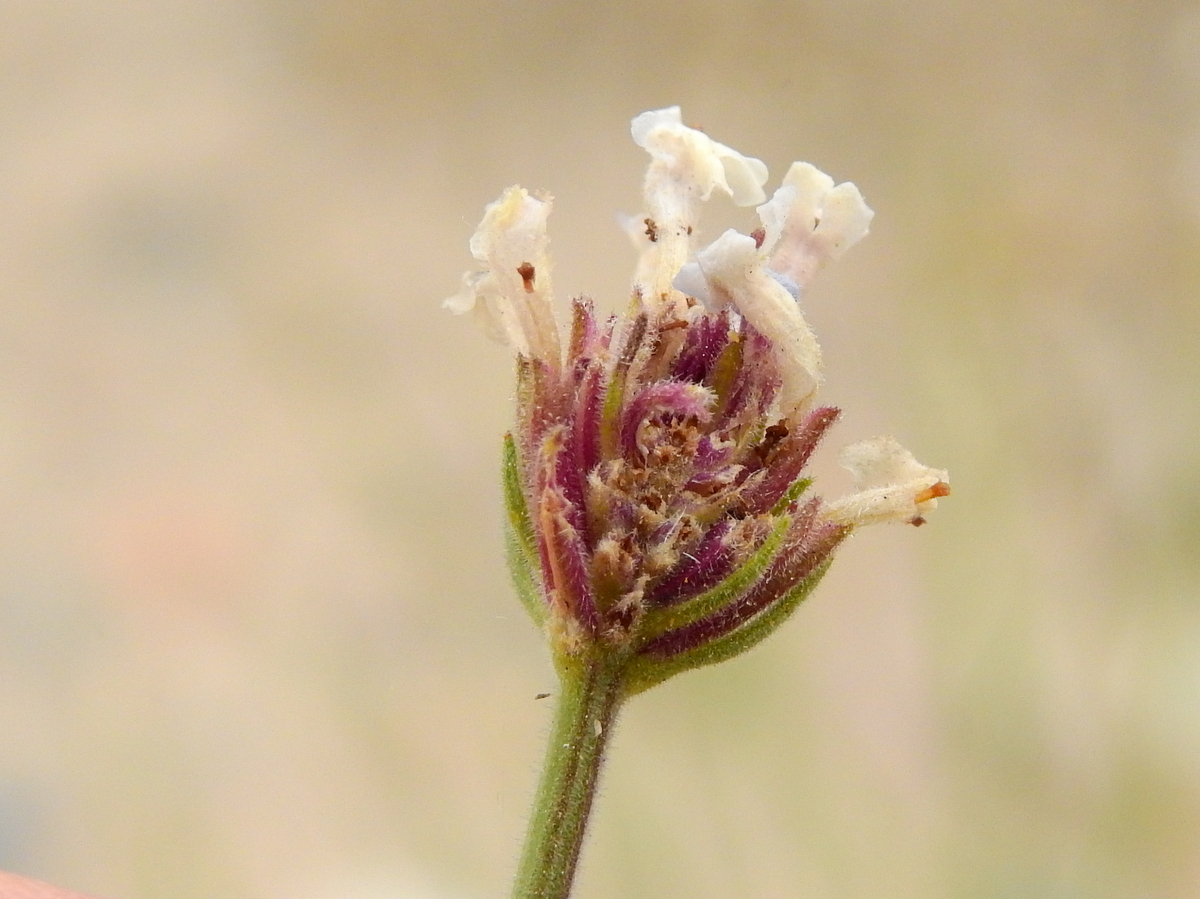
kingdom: Plantae
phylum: Tracheophyta
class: Magnoliopsida
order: Lamiales
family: Verbenaceae
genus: Junellia
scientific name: Junellia crithmifolia
